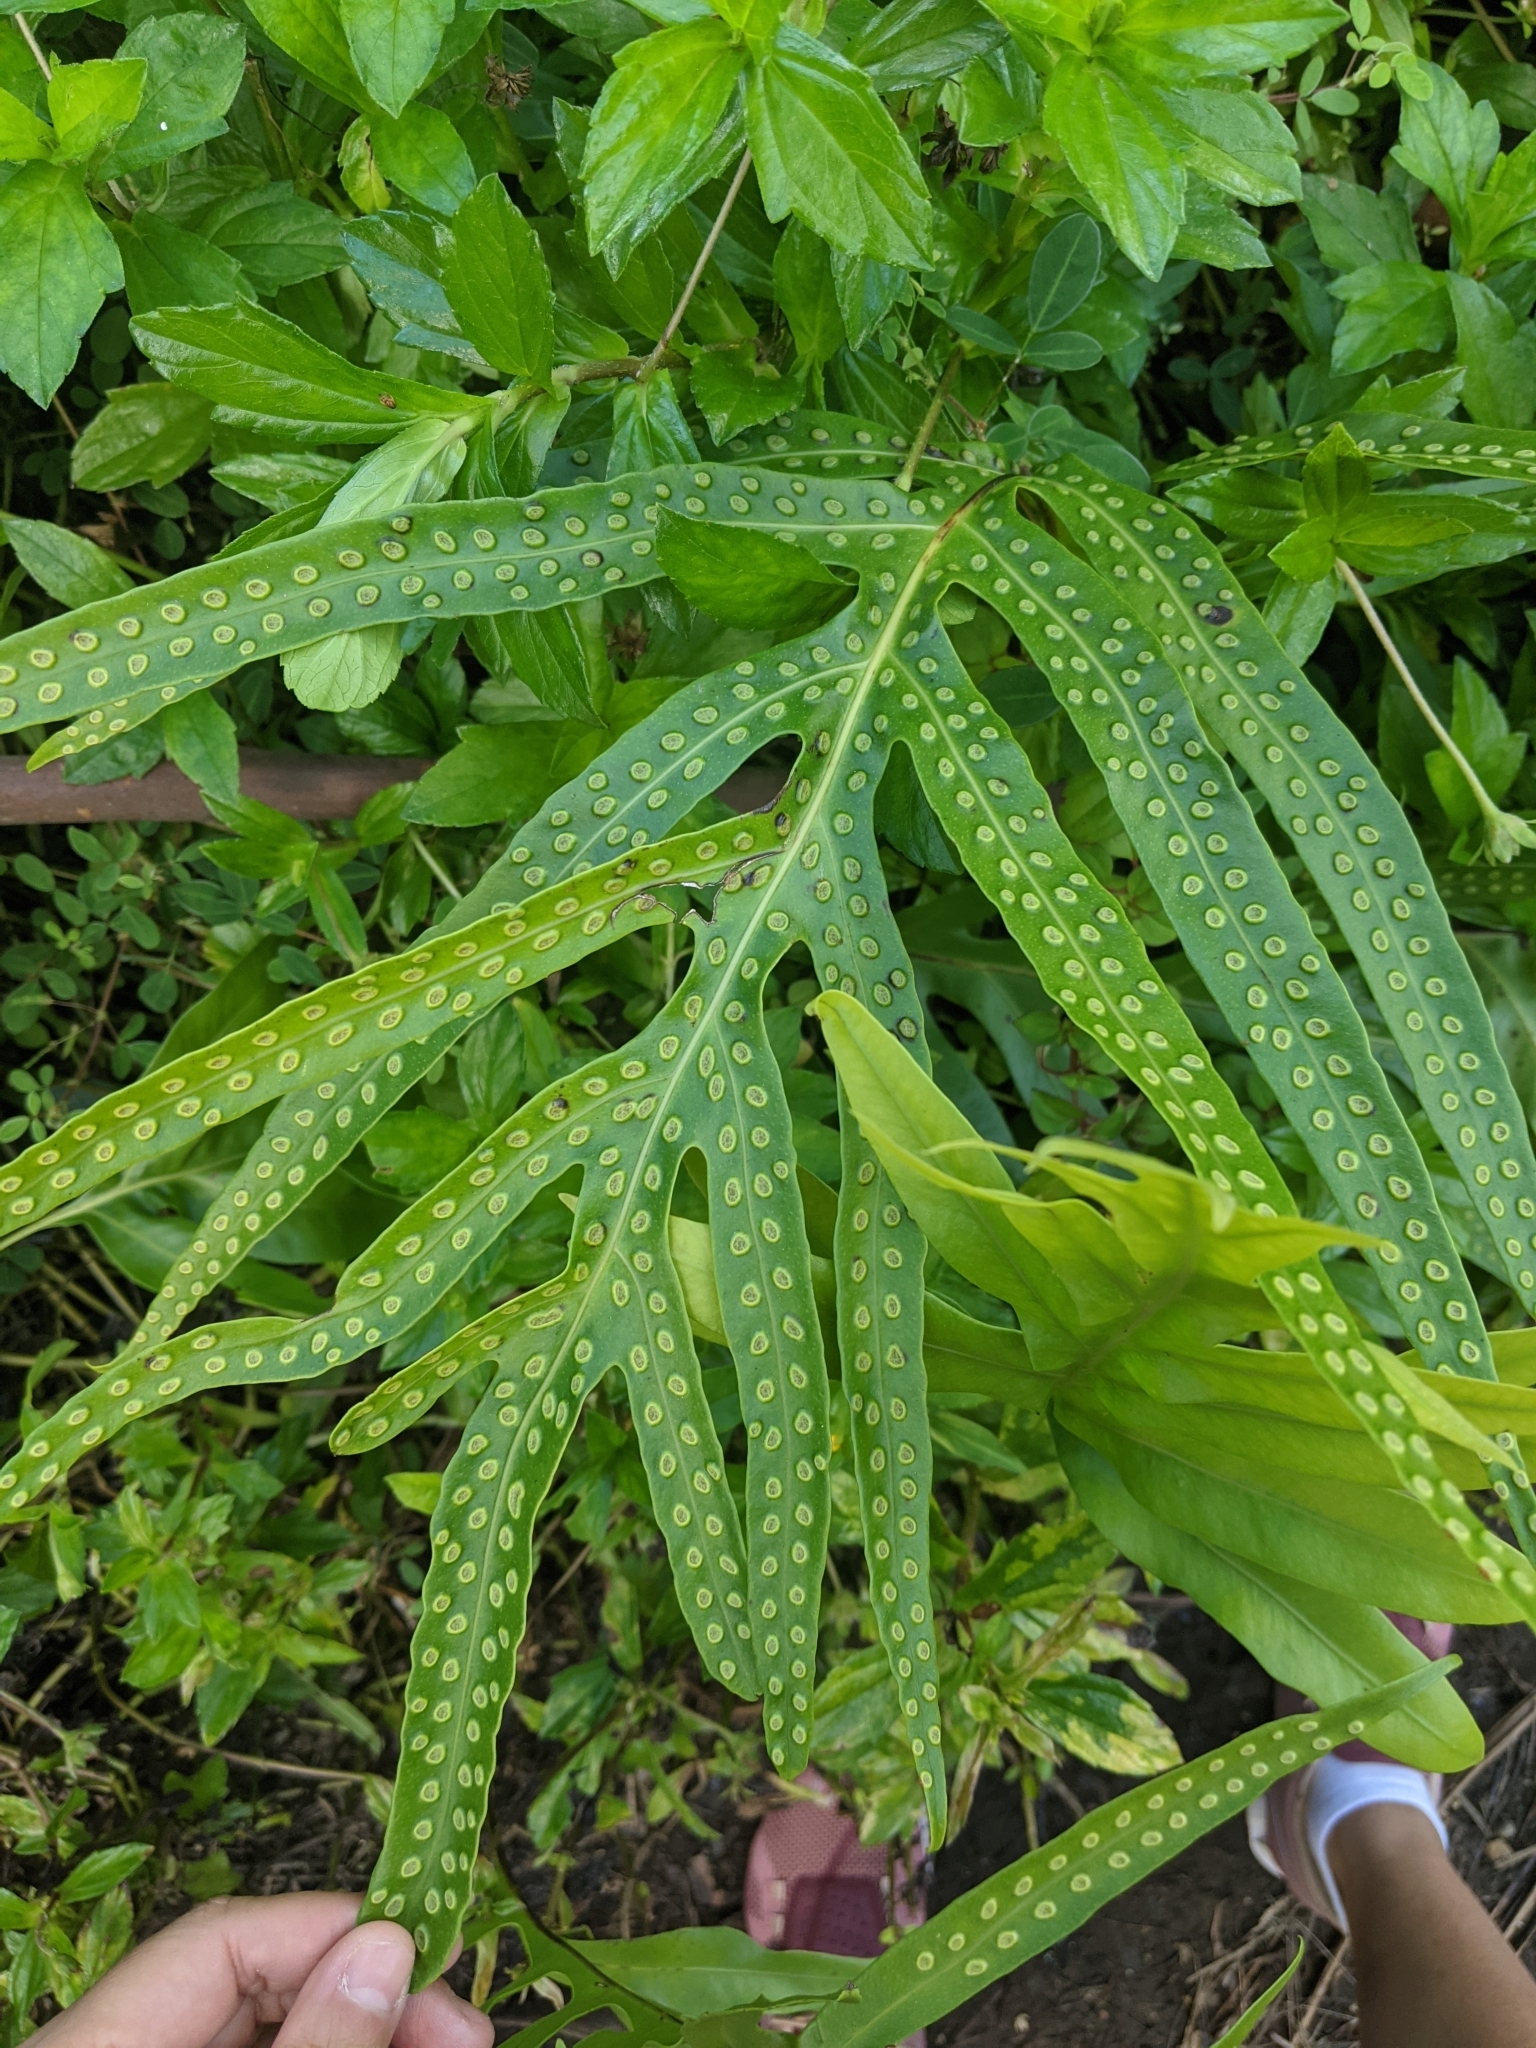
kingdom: Plantae
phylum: Tracheophyta
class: Polypodiopsida
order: Polypodiales
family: Polypodiaceae
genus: Microsorum
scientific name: Microsorum grossum
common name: Musk fern
